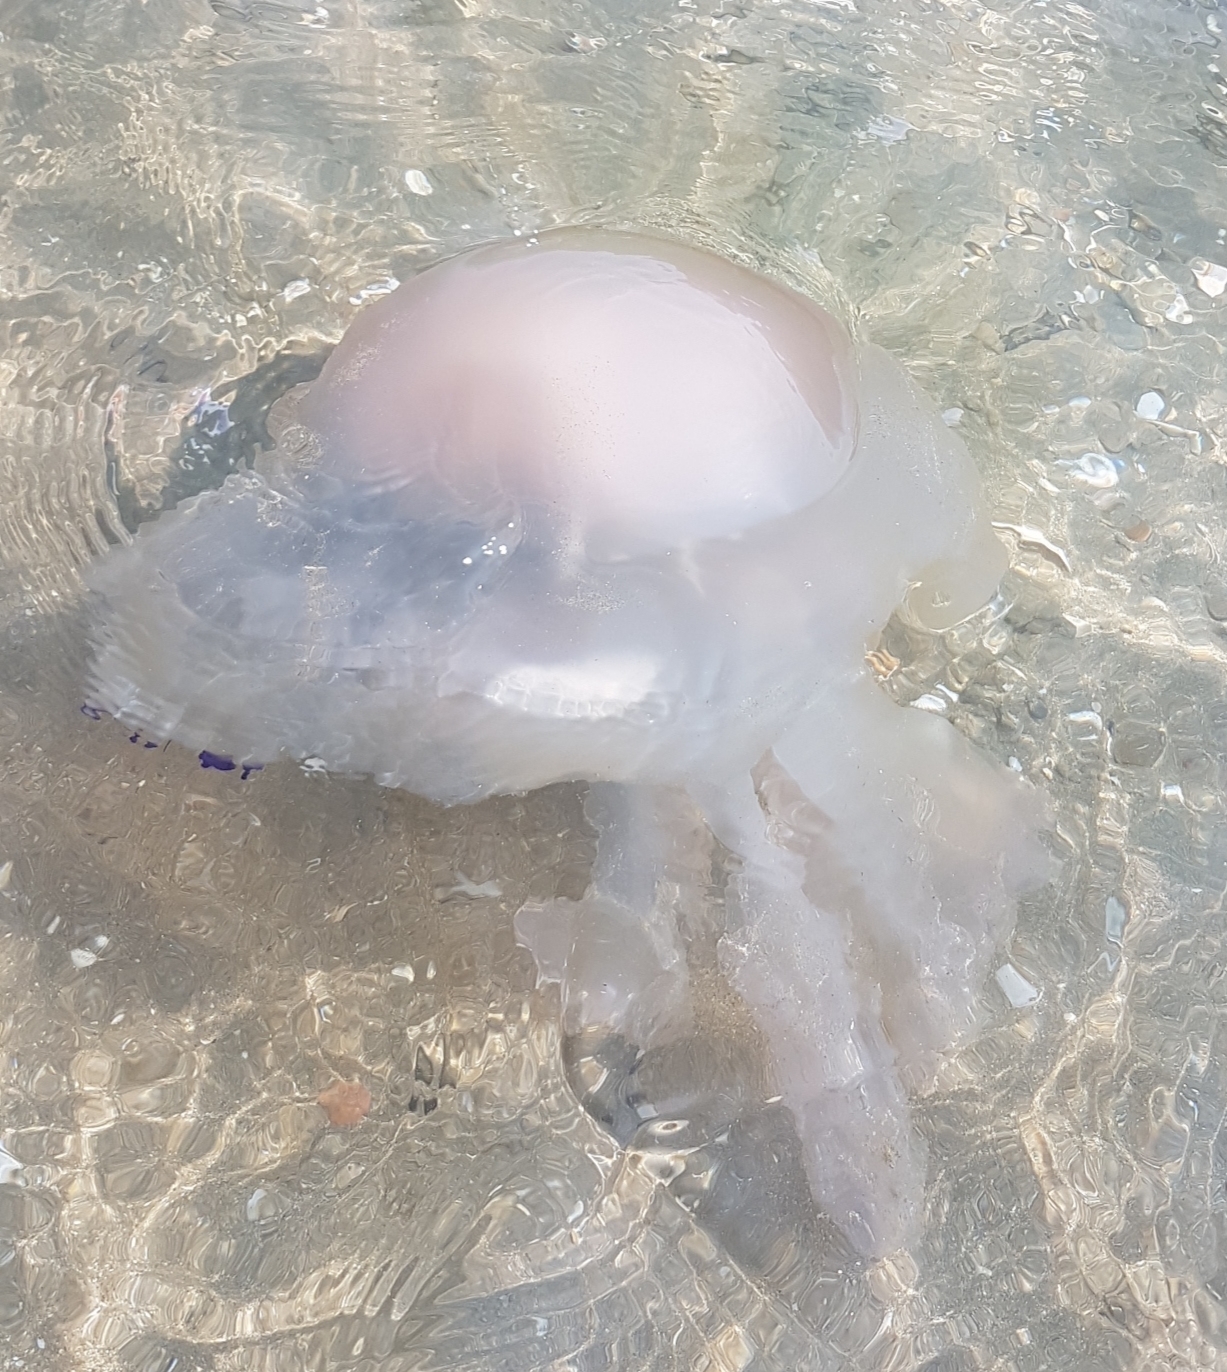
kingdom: Animalia
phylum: Cnidaria
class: Scyphozoa
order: Rhizostomeae
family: Rhizostomatidae
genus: Rhizostoma
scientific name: Rhizostoma pulmo
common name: Barrel jellyfish
